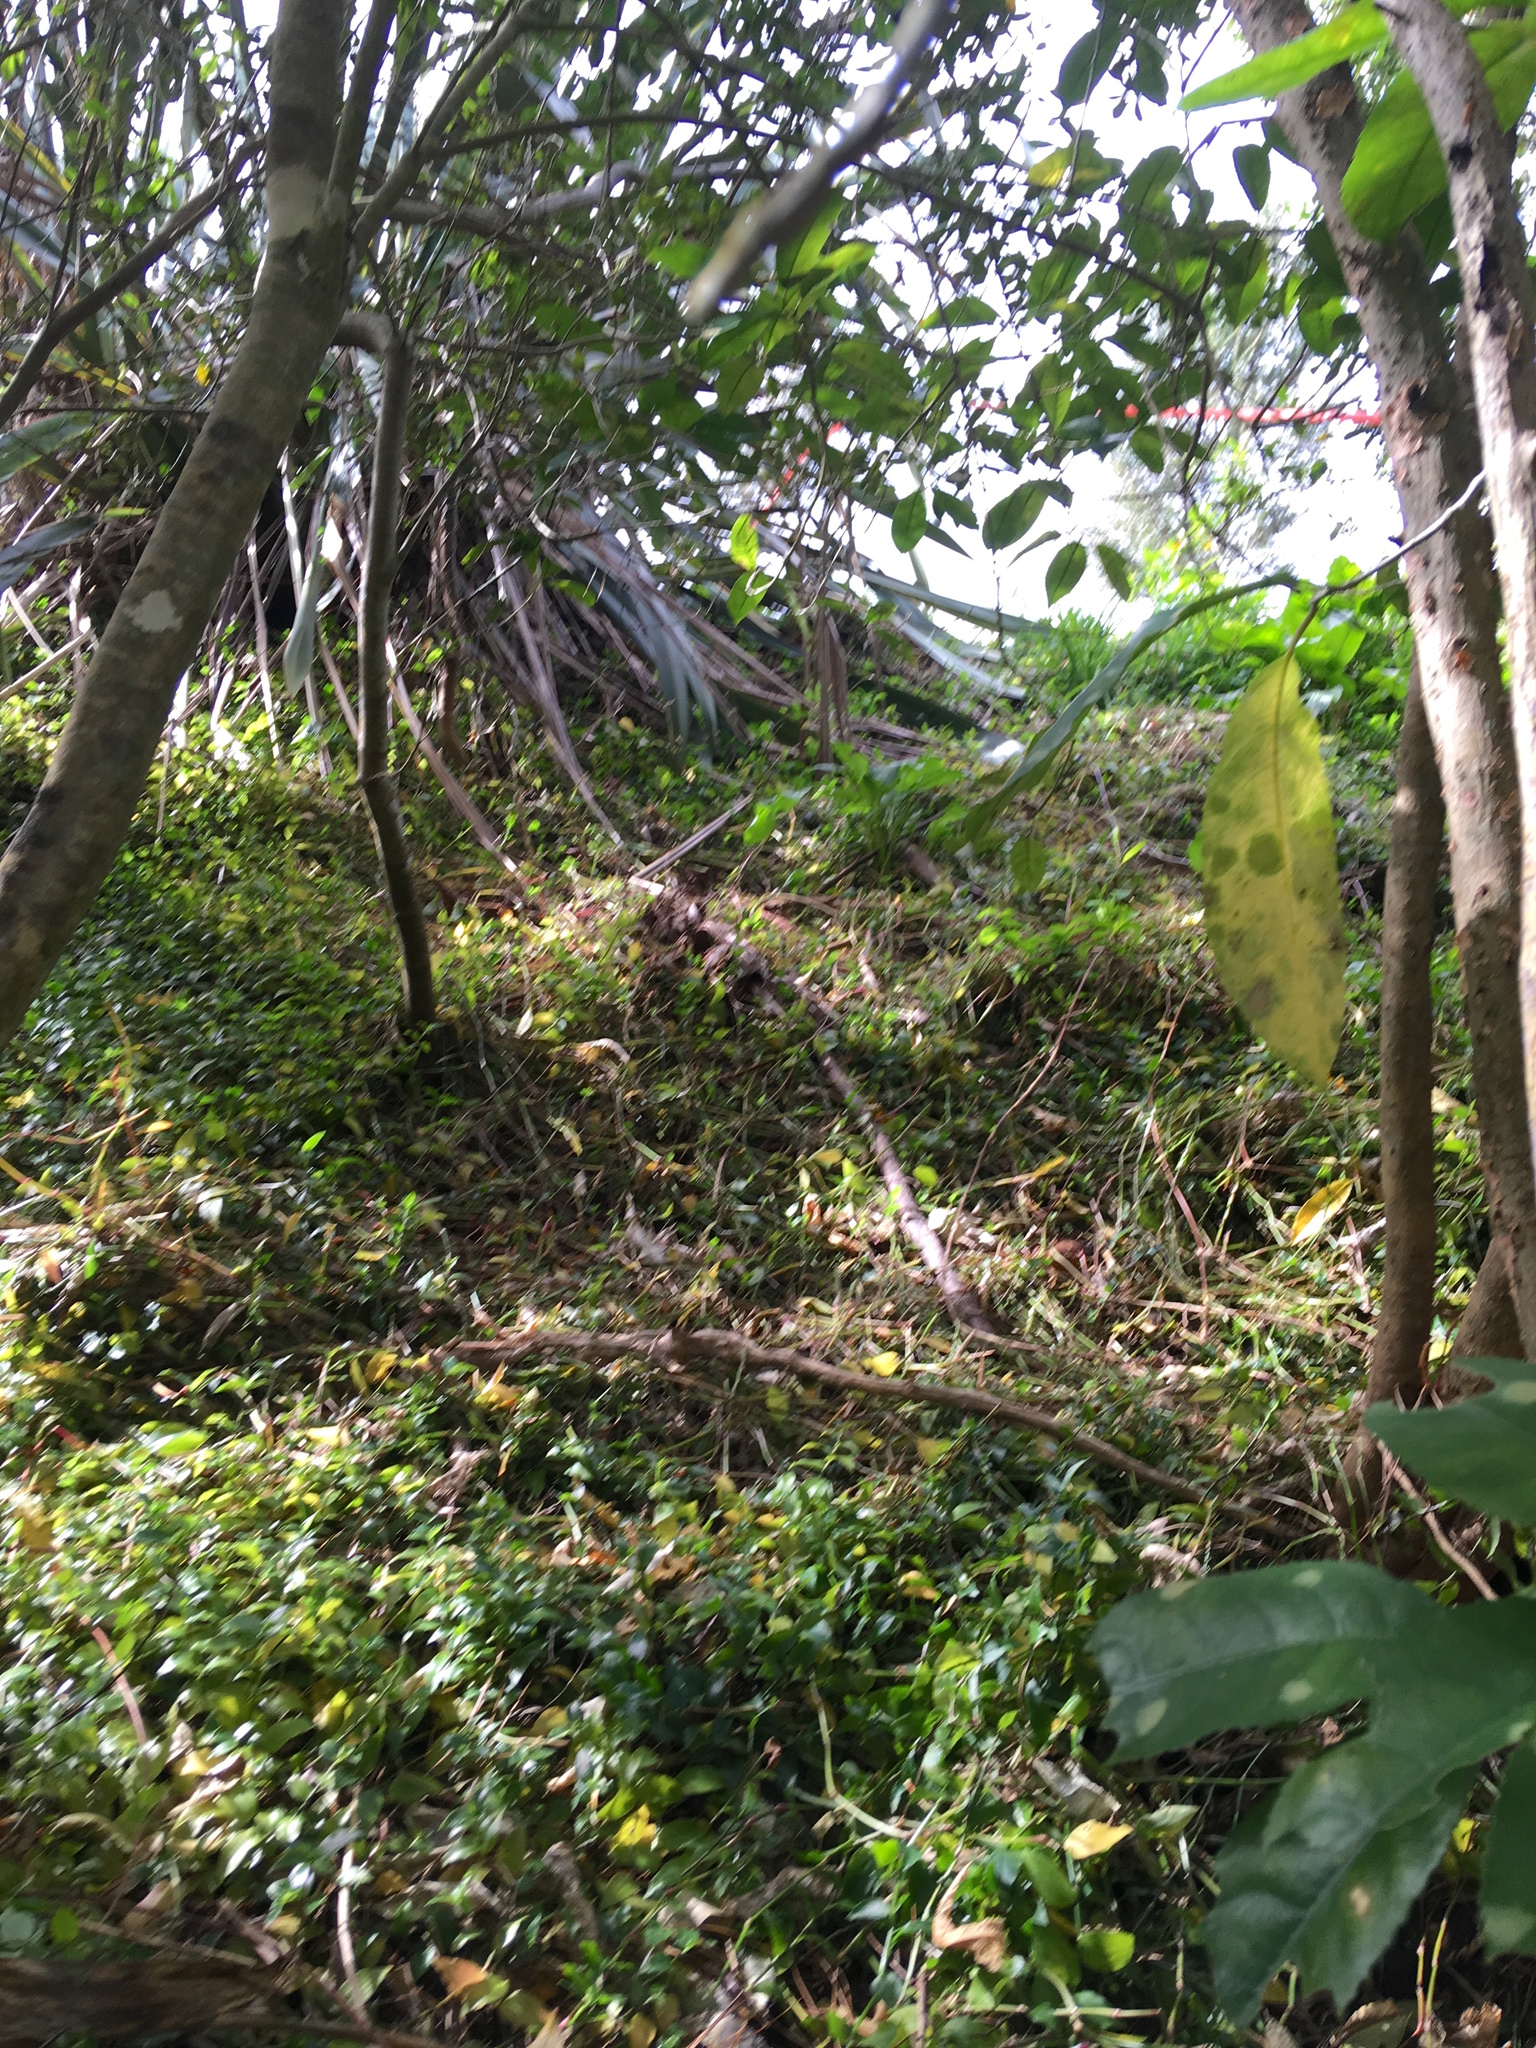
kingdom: Plantae
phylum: Tracheophyta
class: Liliopsida
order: Commelinales
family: Commelinaceae
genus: Tradescantia
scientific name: Tradescantia fluminensis
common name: Wandering-jew
